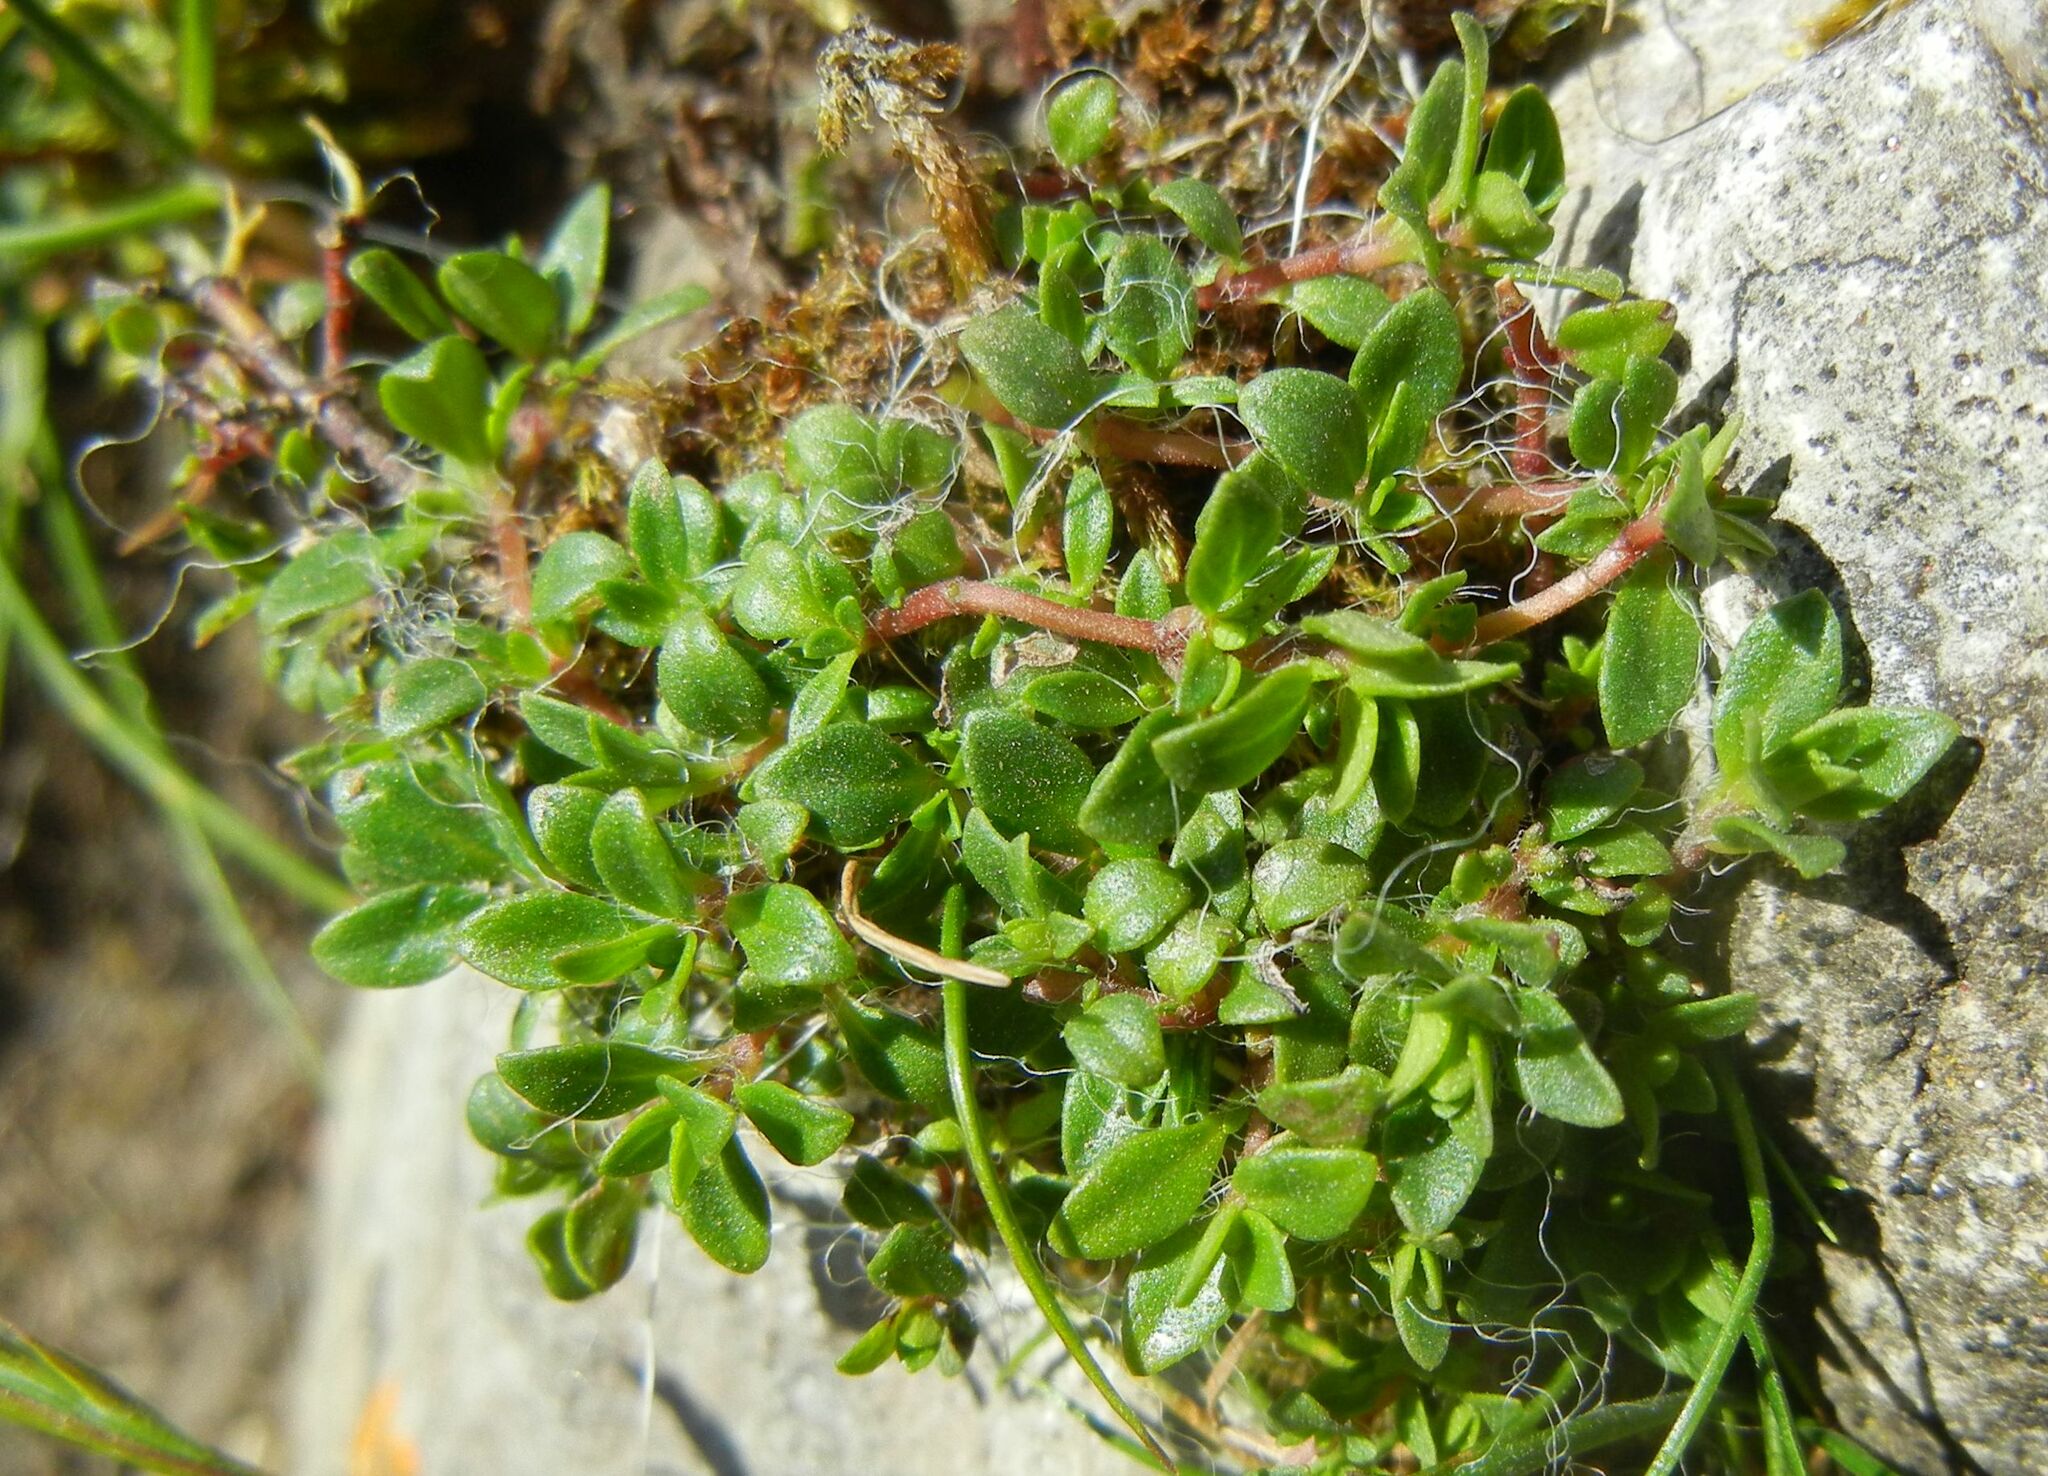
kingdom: Plantae
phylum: Tracheophyta
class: Magnoliopsida
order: Lamiales
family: Lamiaceae
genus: Thymus
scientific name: Thymus praecox
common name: Wild thyme
